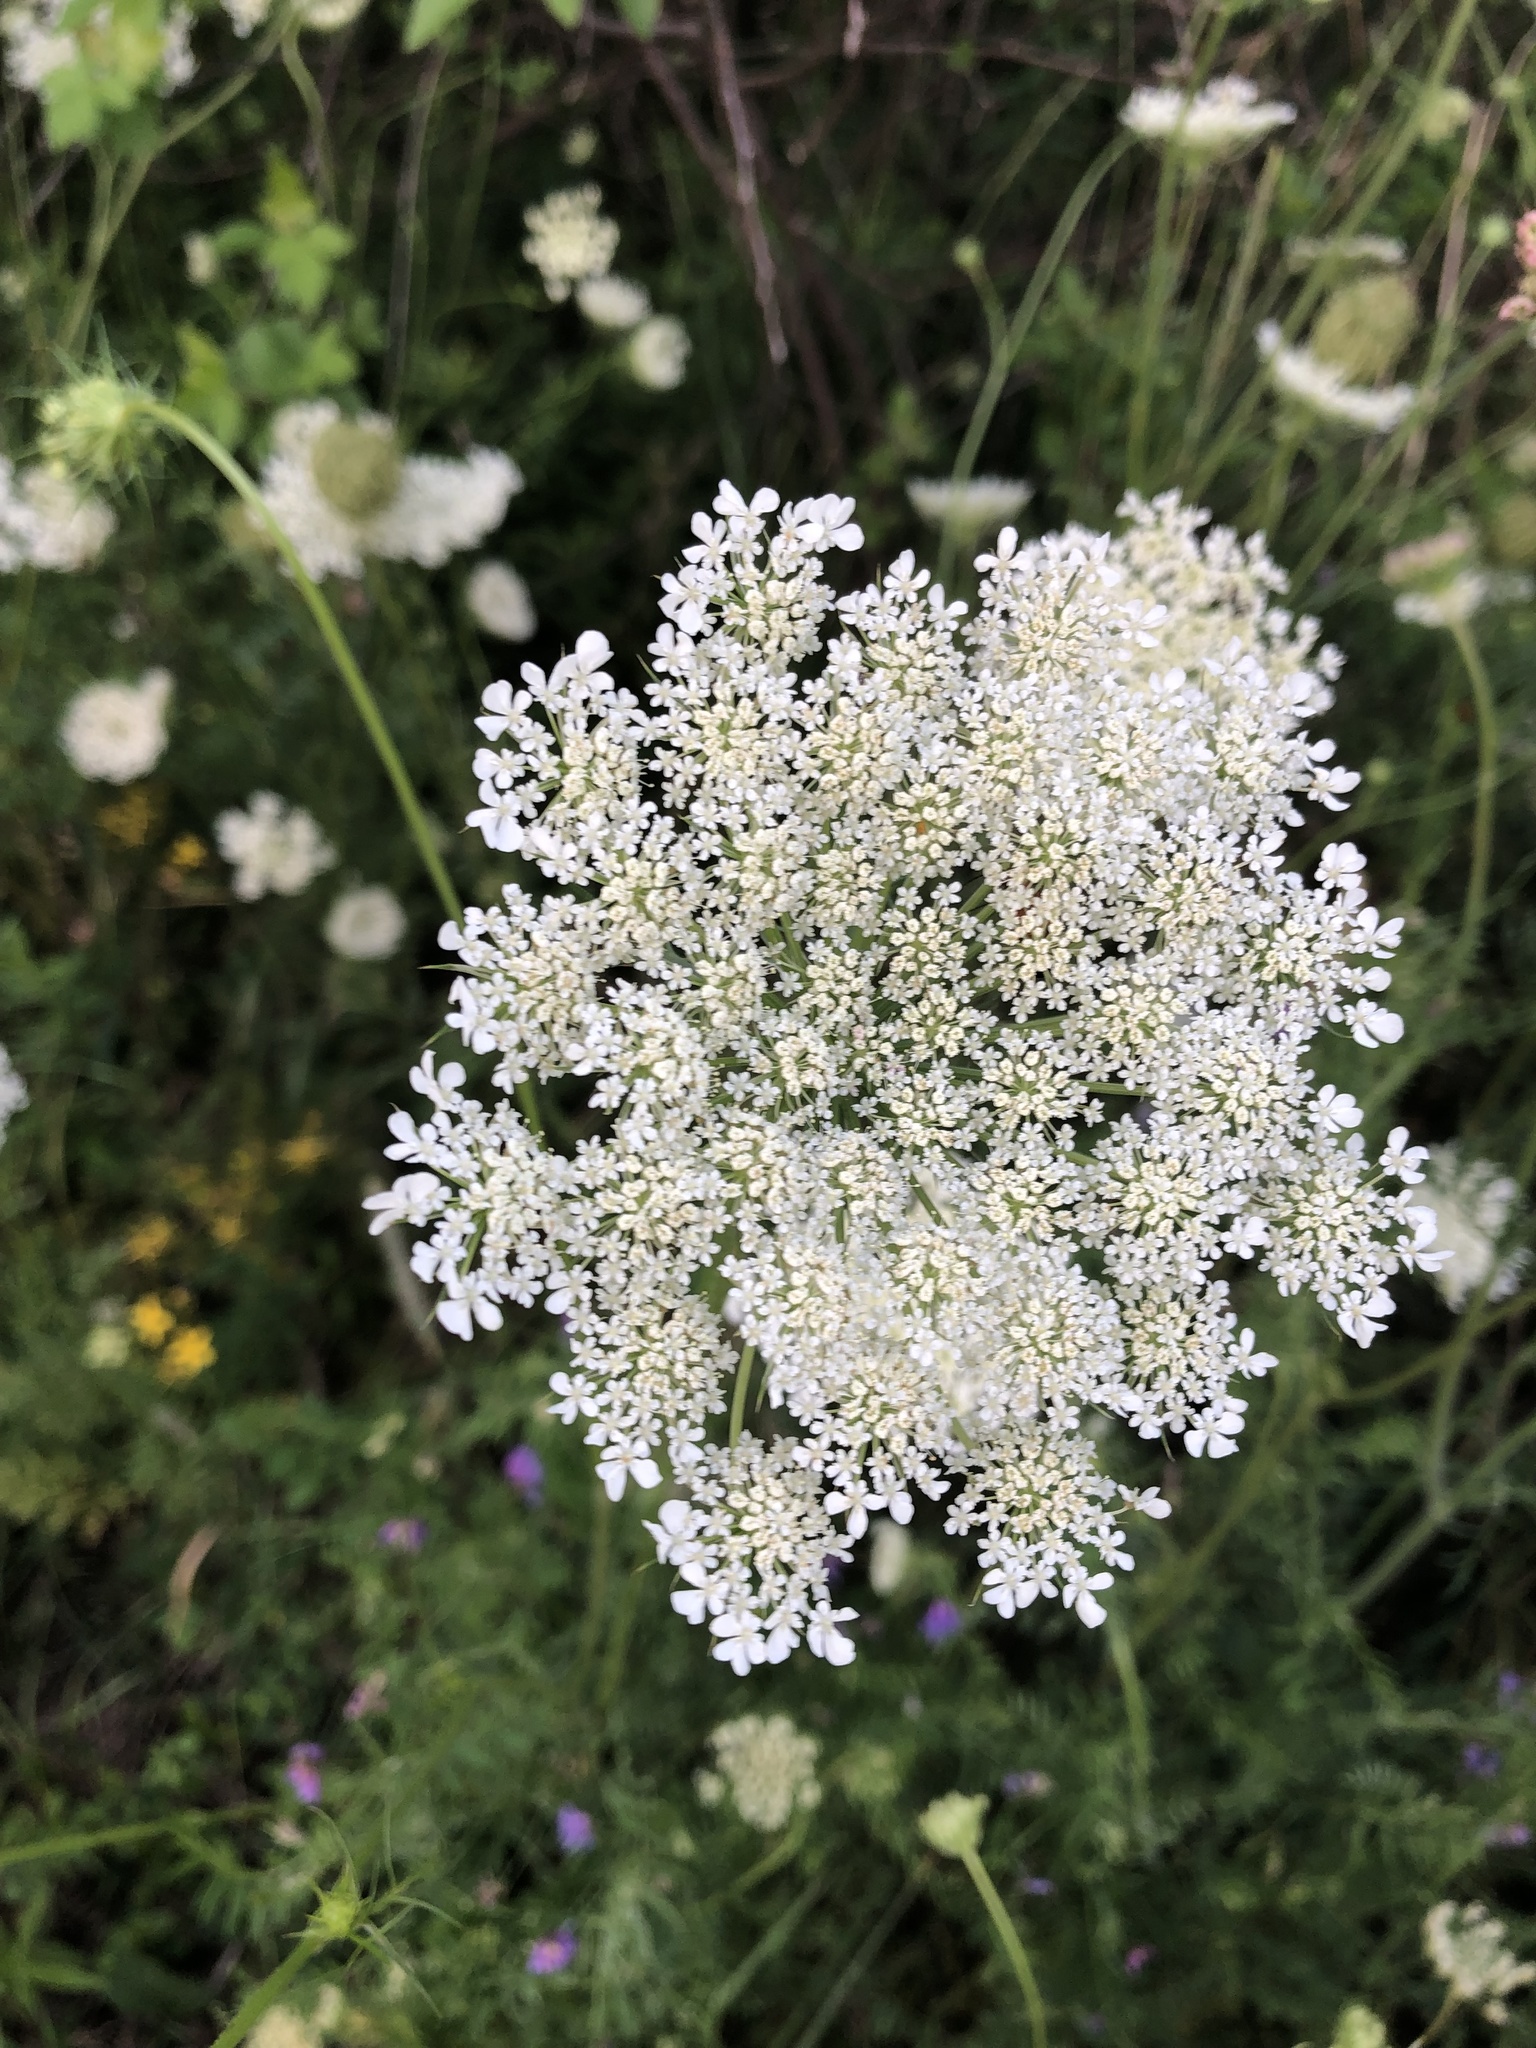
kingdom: Plantae
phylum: Tracheophyta
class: Magnoliopsida
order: Apiales
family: Apiaceae
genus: Daucus
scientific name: Daucus carota
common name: Wild carrot
